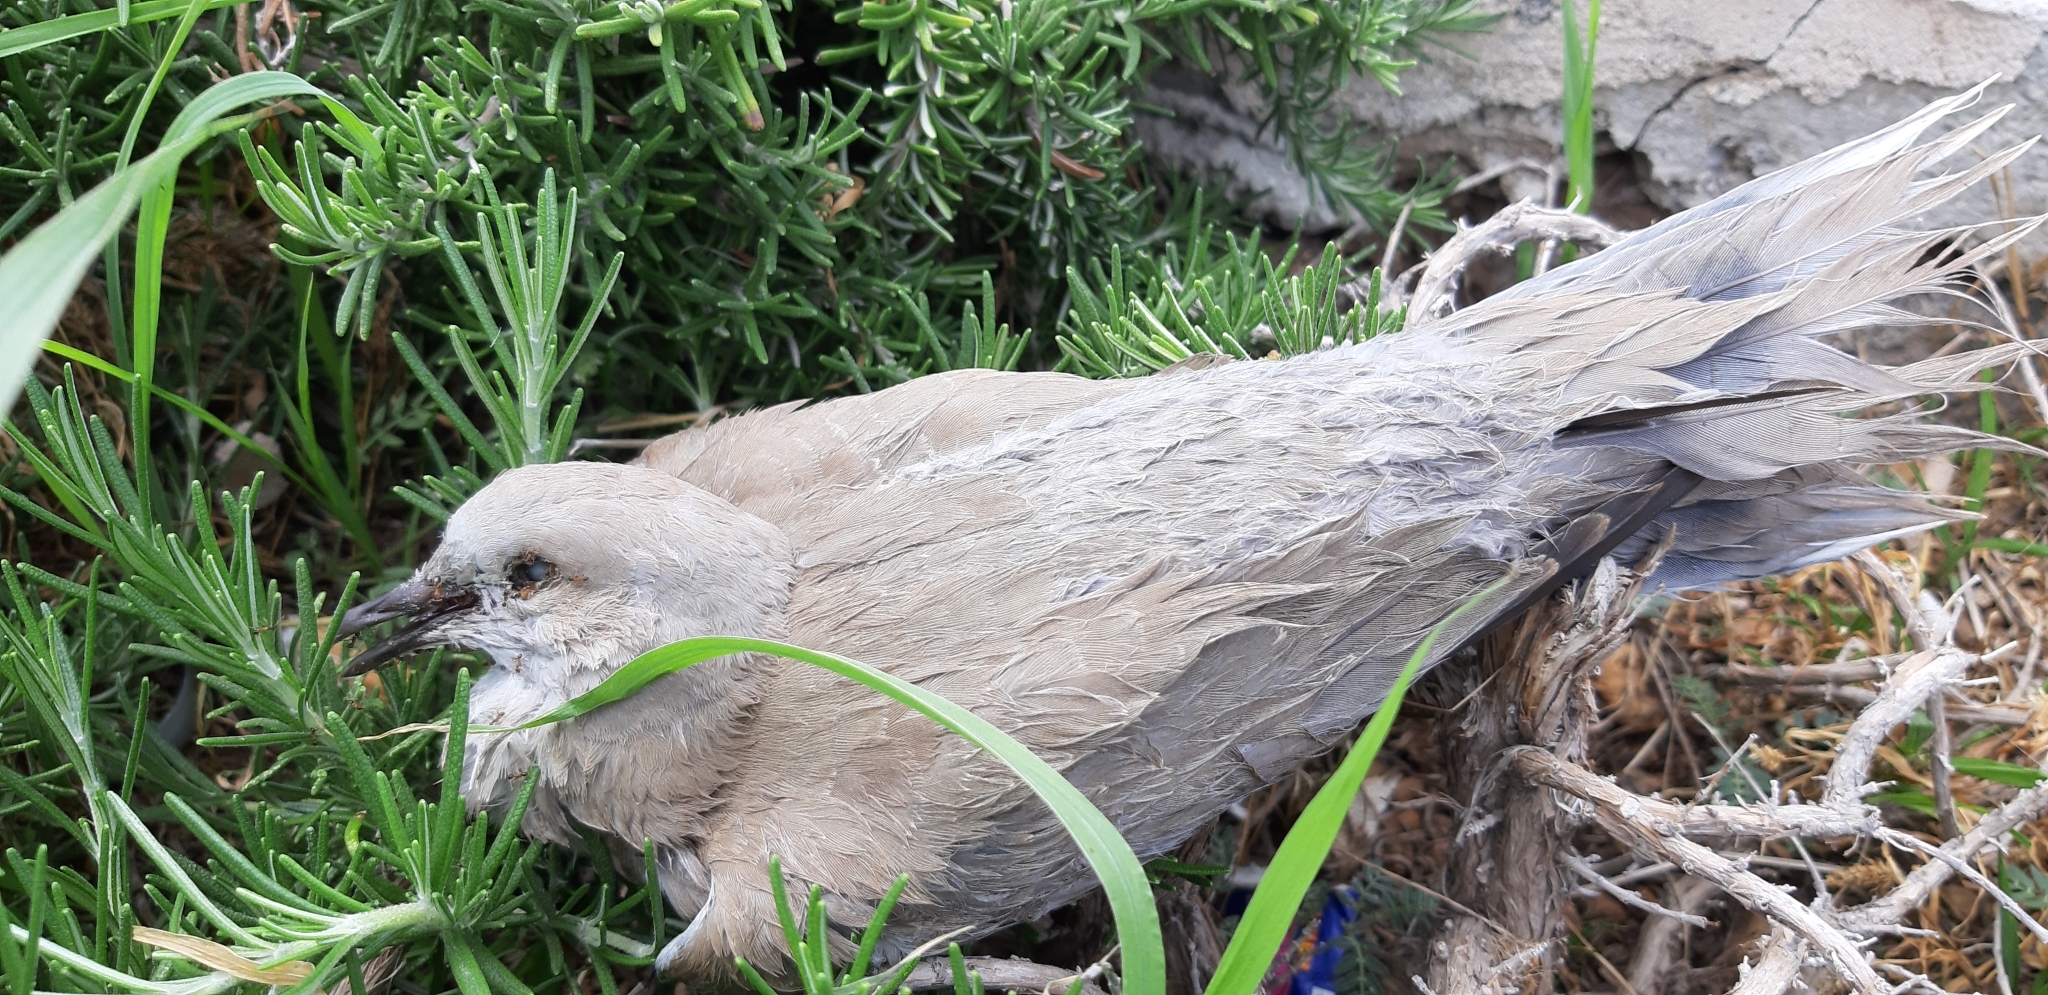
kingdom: Animalia
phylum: Chordata
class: Aves
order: Columbiformes
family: Columbidae
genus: Streptopelia
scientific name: Streptopelia decaocto
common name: Eurasian collared dove
